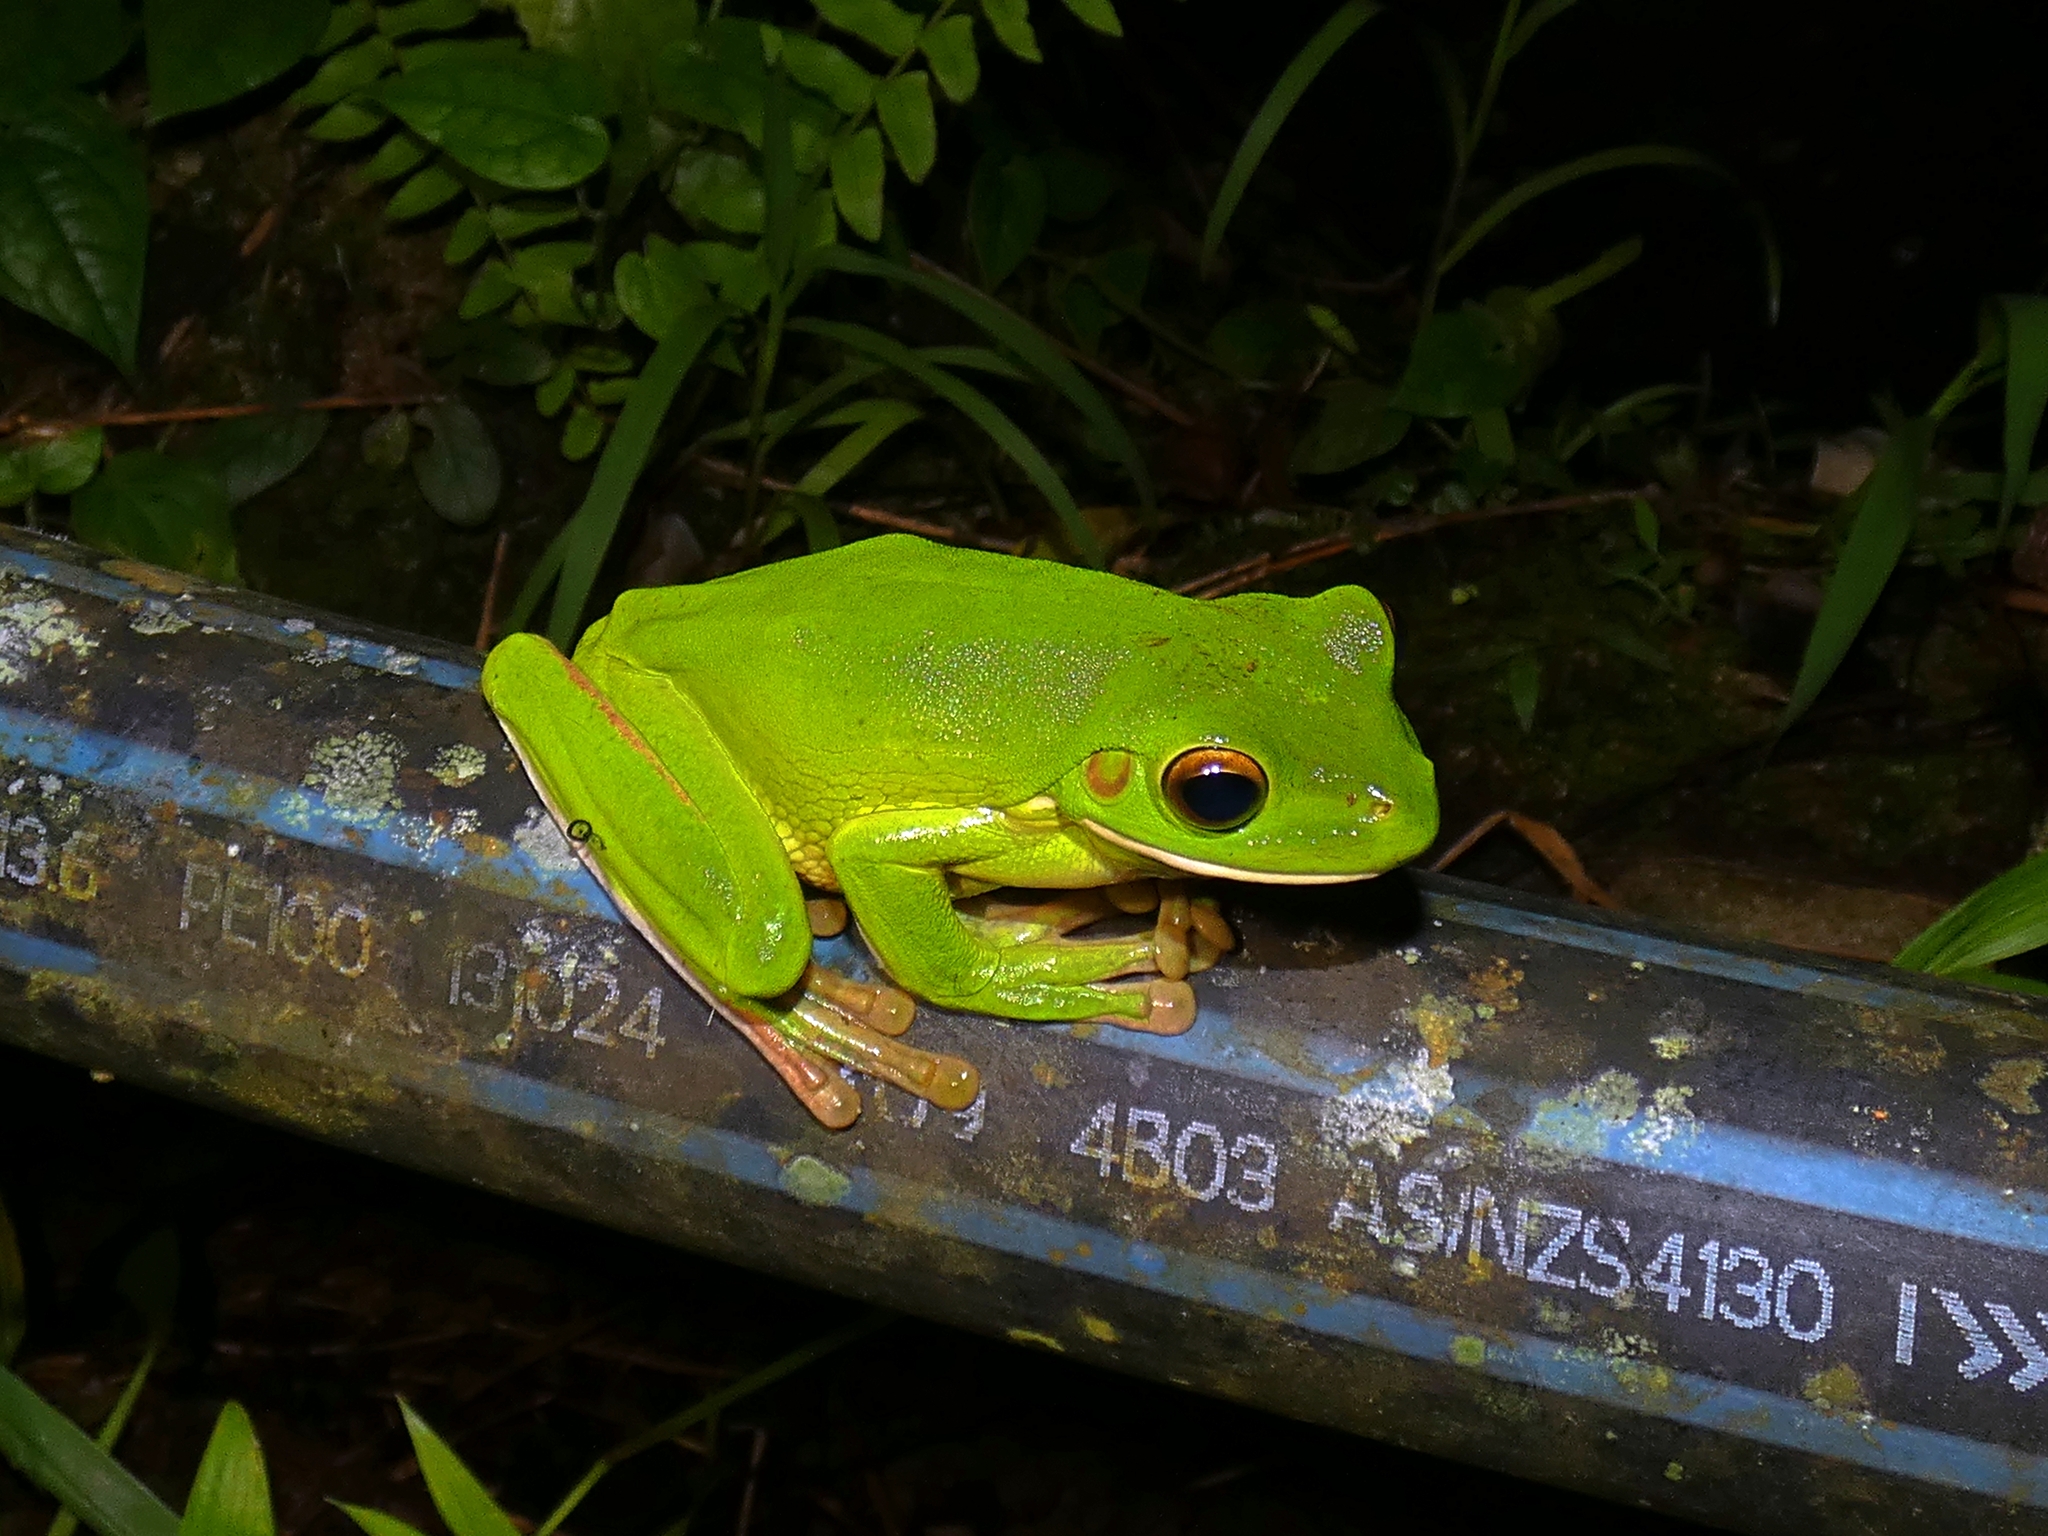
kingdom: Animalia
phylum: Chordata
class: Amphibia
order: Anura
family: Pelodryadidae
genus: Nyctimystes
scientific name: Nyctimystes infrafrenatus
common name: Australian giant treefrog
